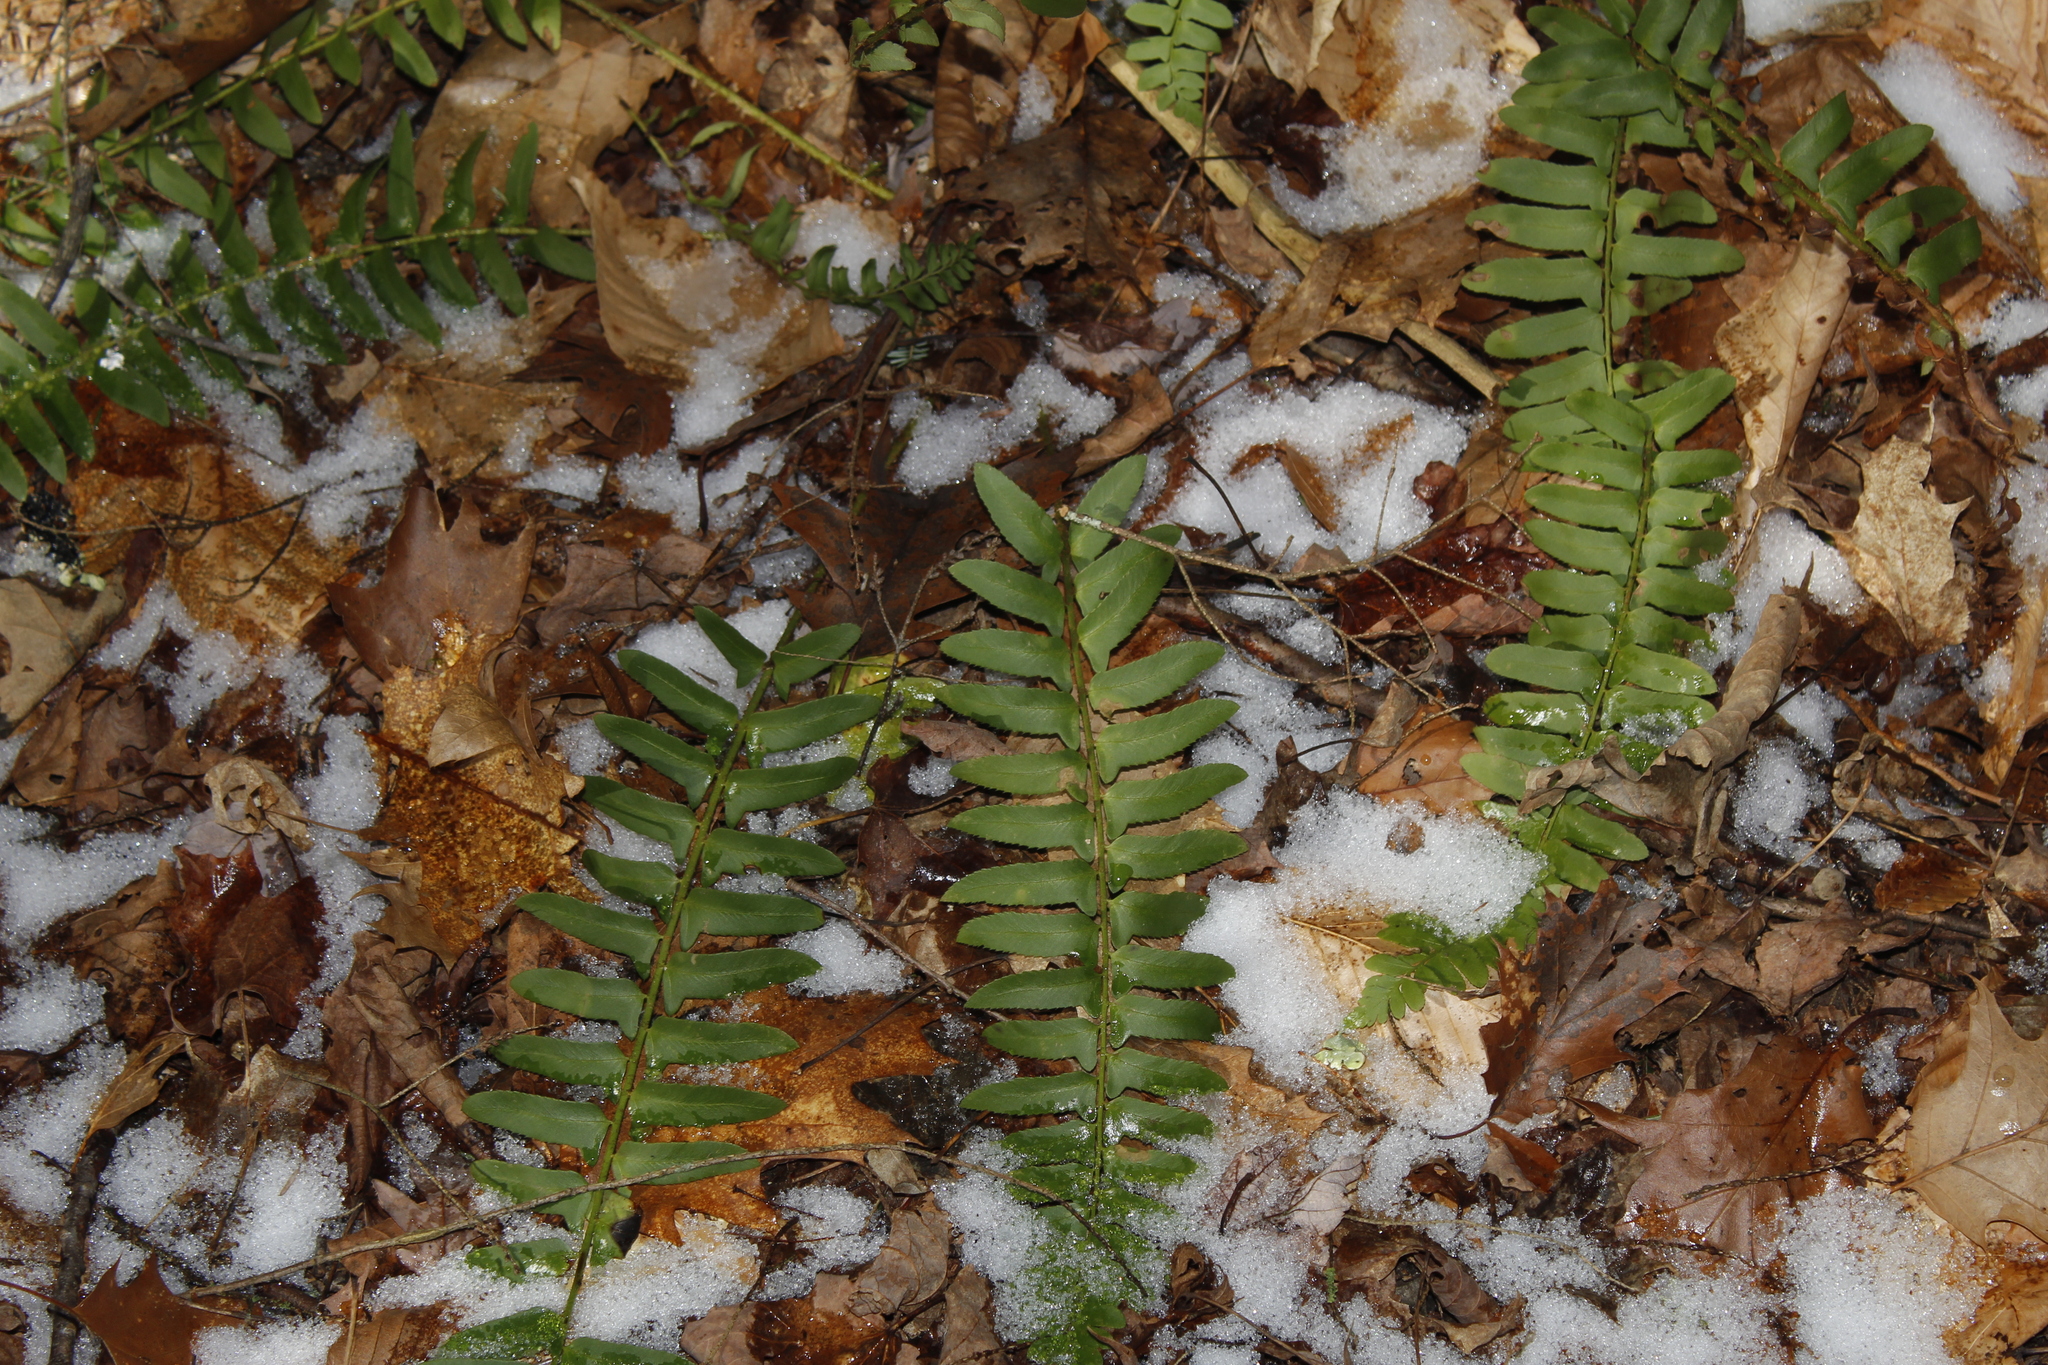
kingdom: Plantae
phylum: Tracheophyta
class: Polypodiopsida
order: Polypodiales
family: Dryopteridaceae
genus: Polystichum
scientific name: Polystichum acrostichoides
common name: Christmas fern
